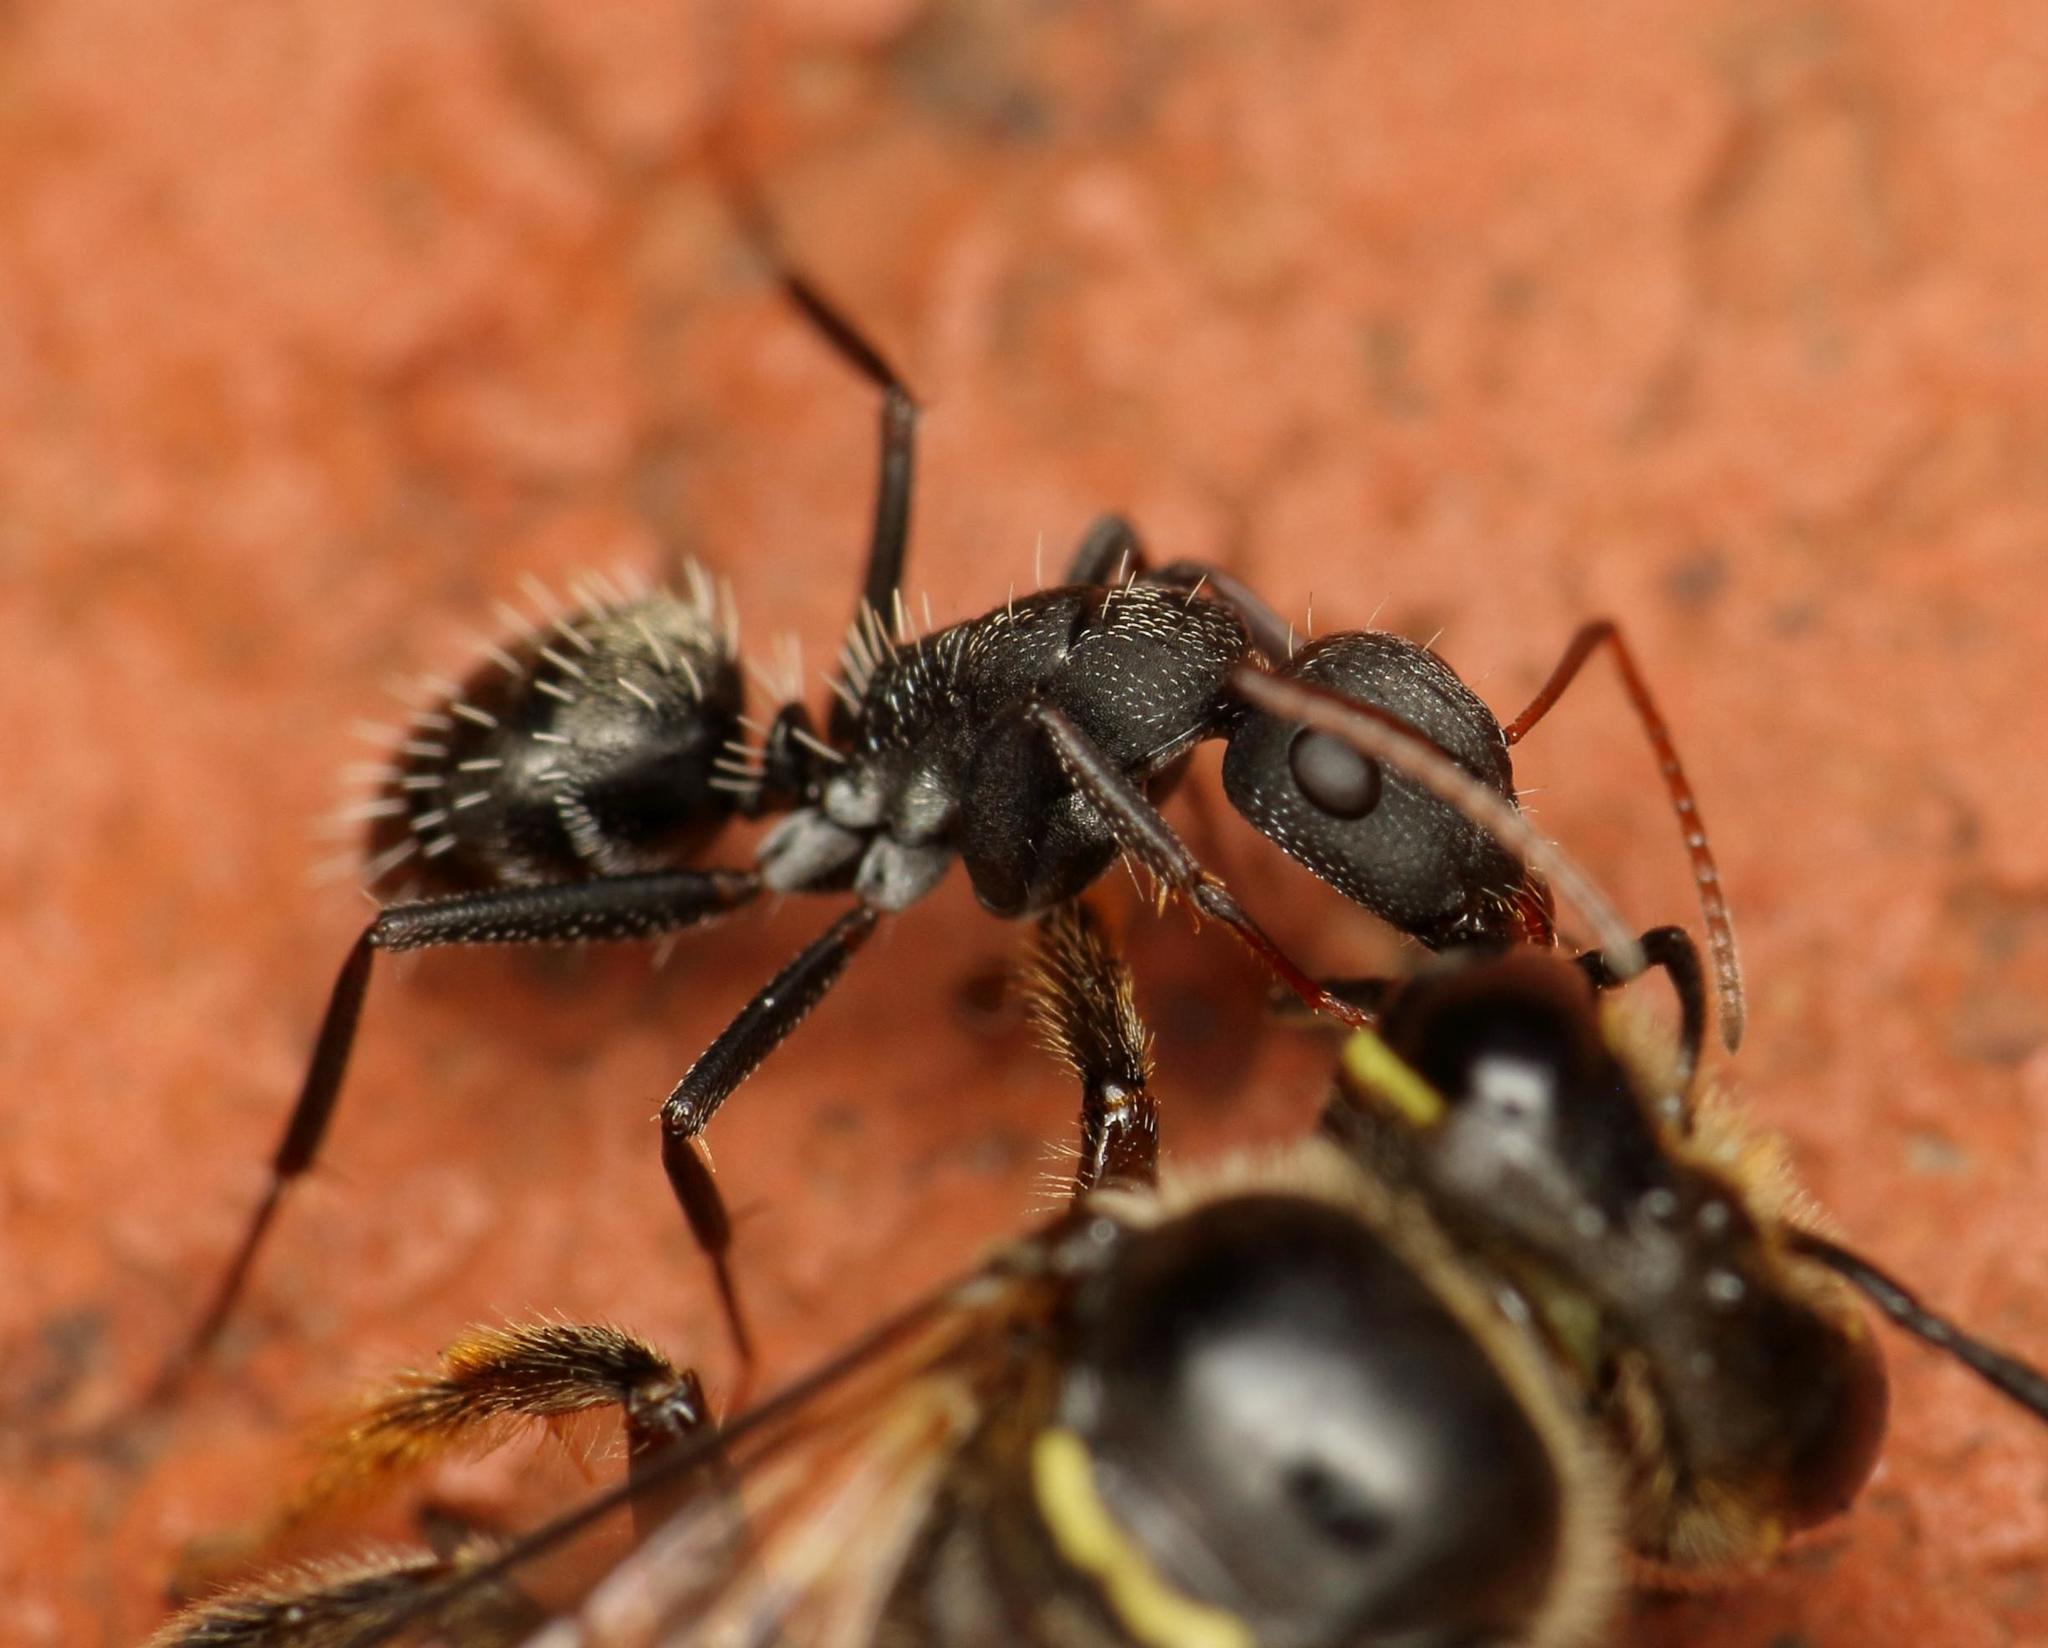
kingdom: Animalia
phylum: Arthropoda
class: Insecta
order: Hymenoptera
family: Formicidae
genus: Camponotus
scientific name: Camponotus niveosetosus
